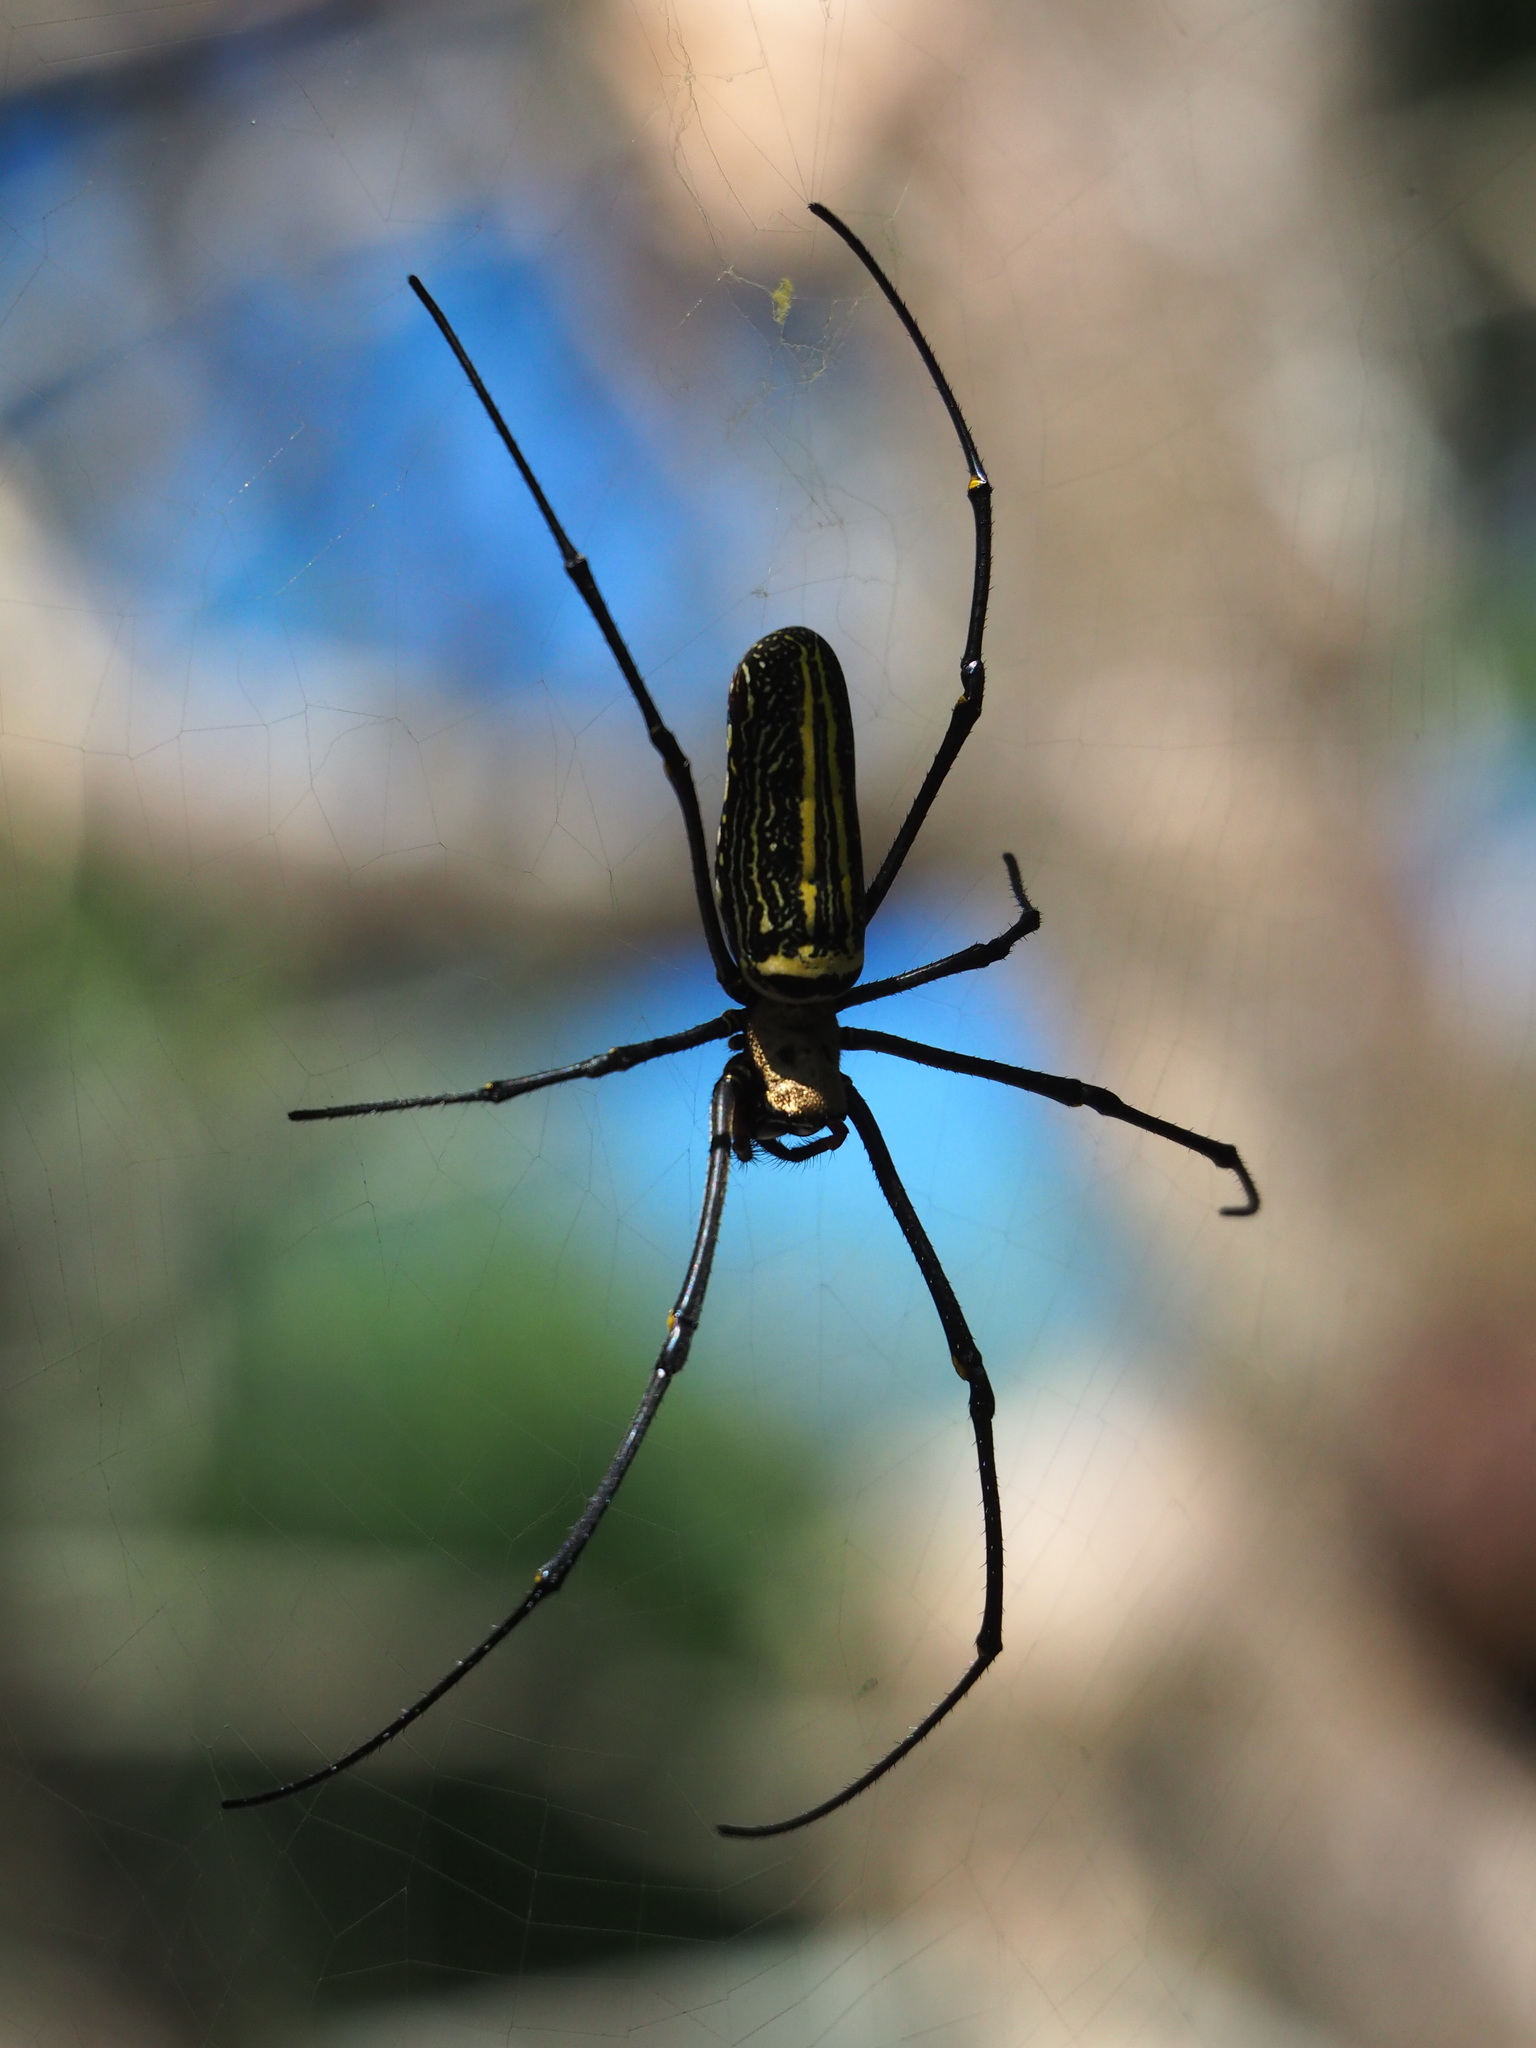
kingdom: Animalia
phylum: Arthropoda
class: Arachnida
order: Araneae
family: Araneidae
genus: Nephila
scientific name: Nephila pilipes
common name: Giant golden orb weaver
